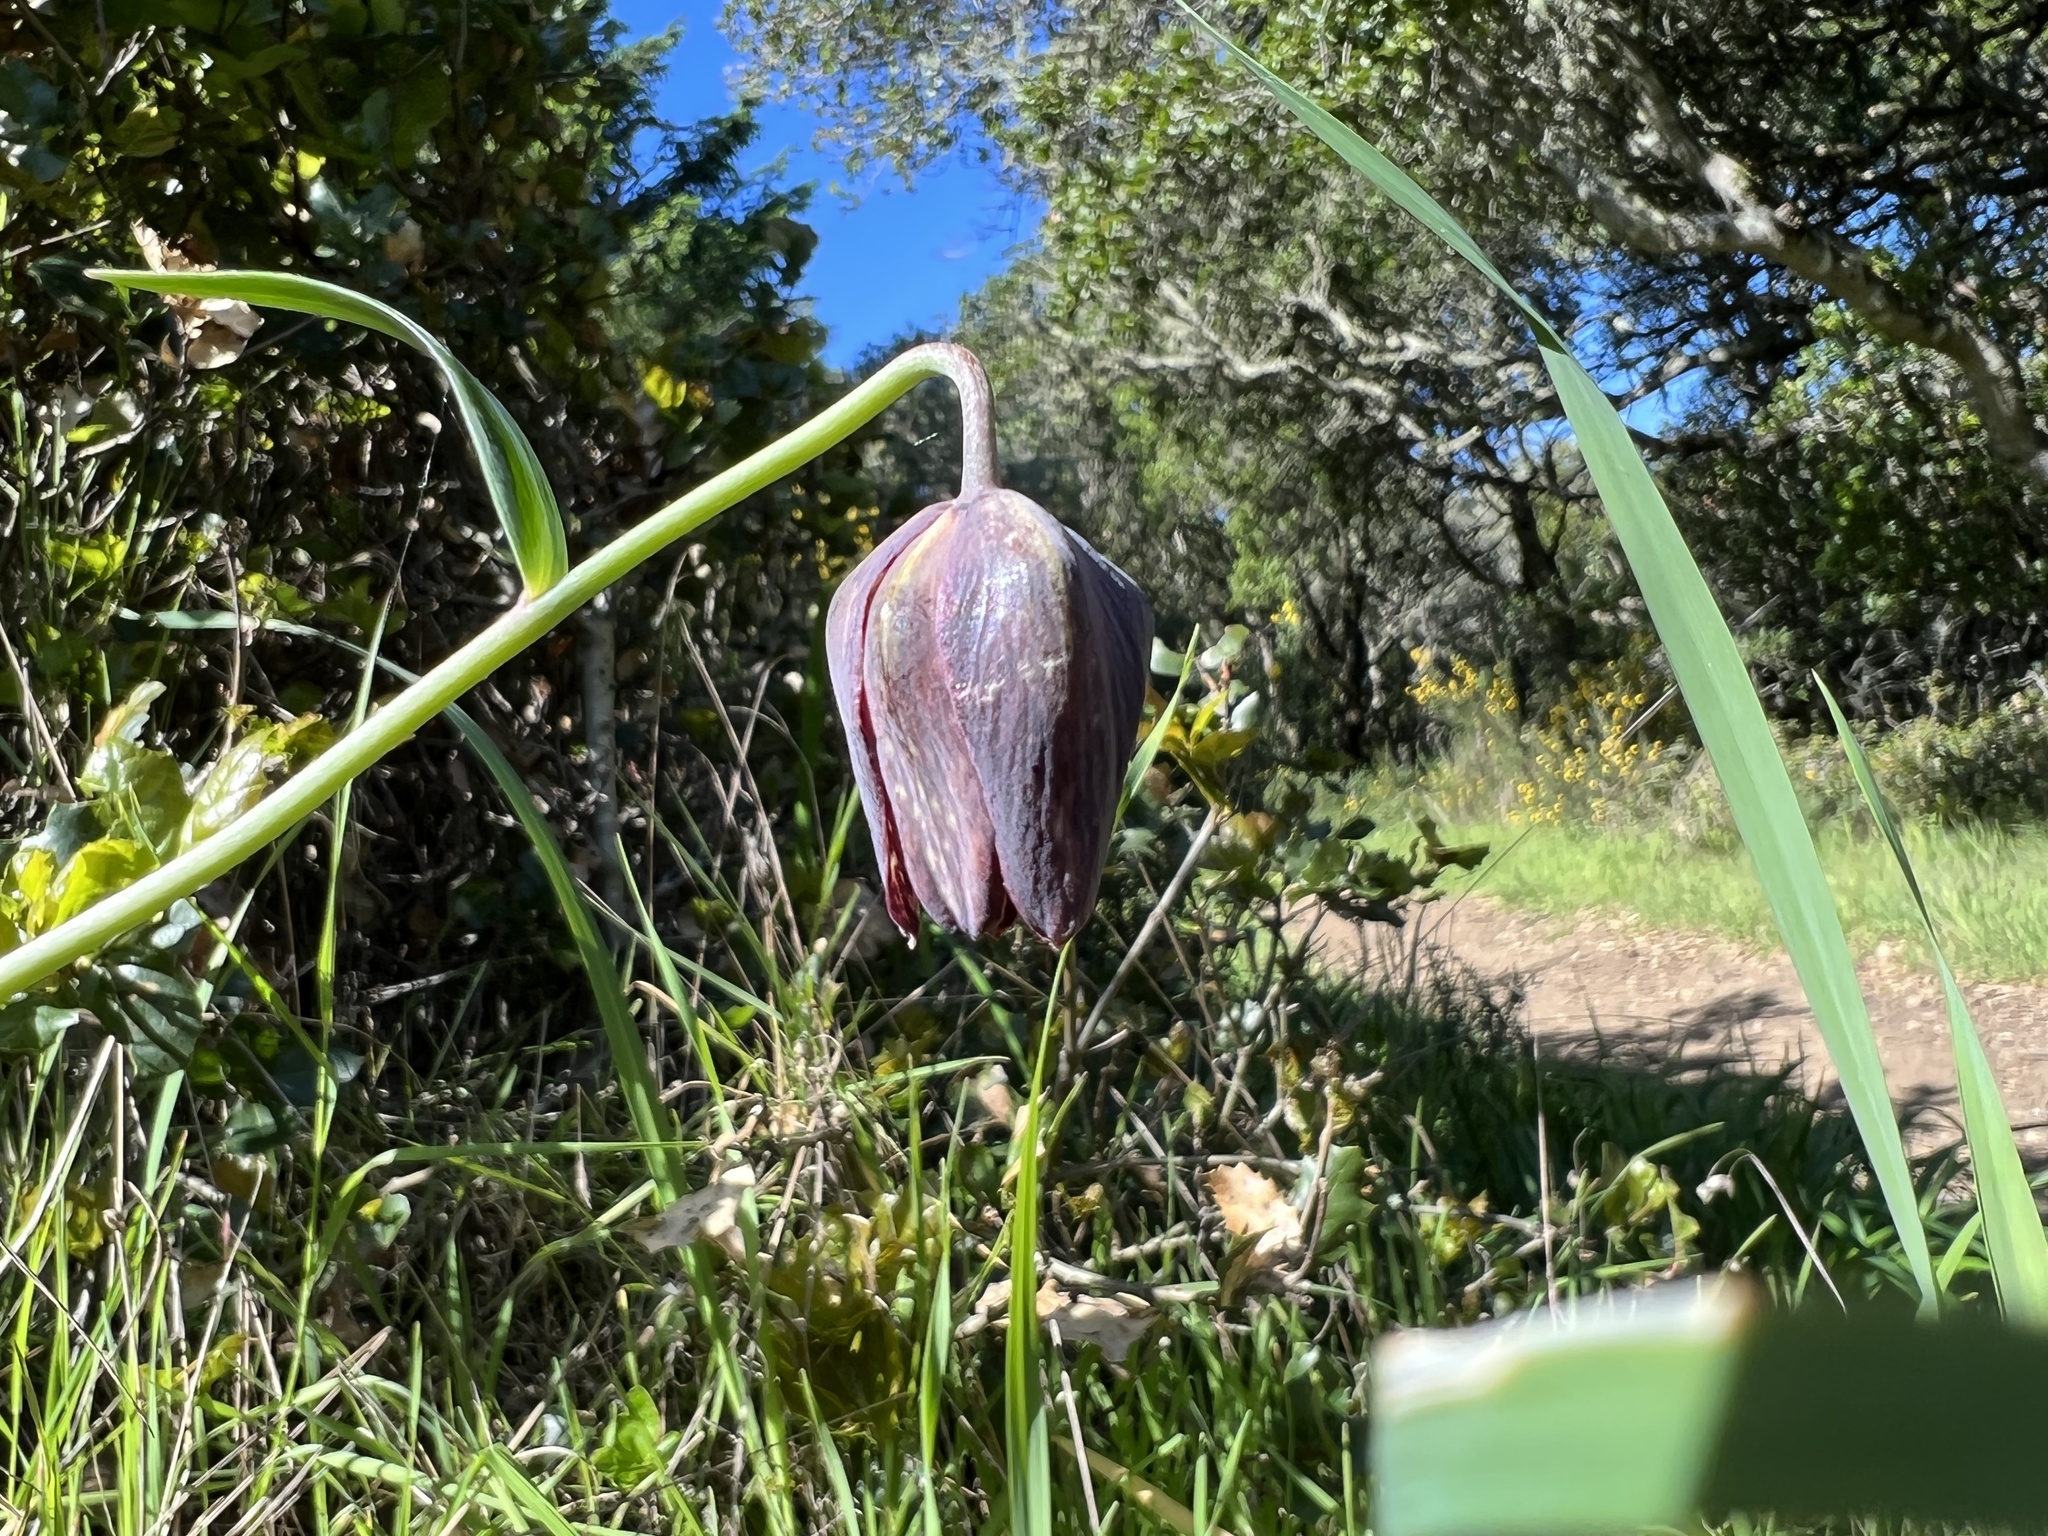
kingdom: Plantae
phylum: Tracheophyta
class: Liliopsida
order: Liliales
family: Liliaceae
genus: Fritillaria
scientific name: Fritillaria affinis
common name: Ojai fritillary
